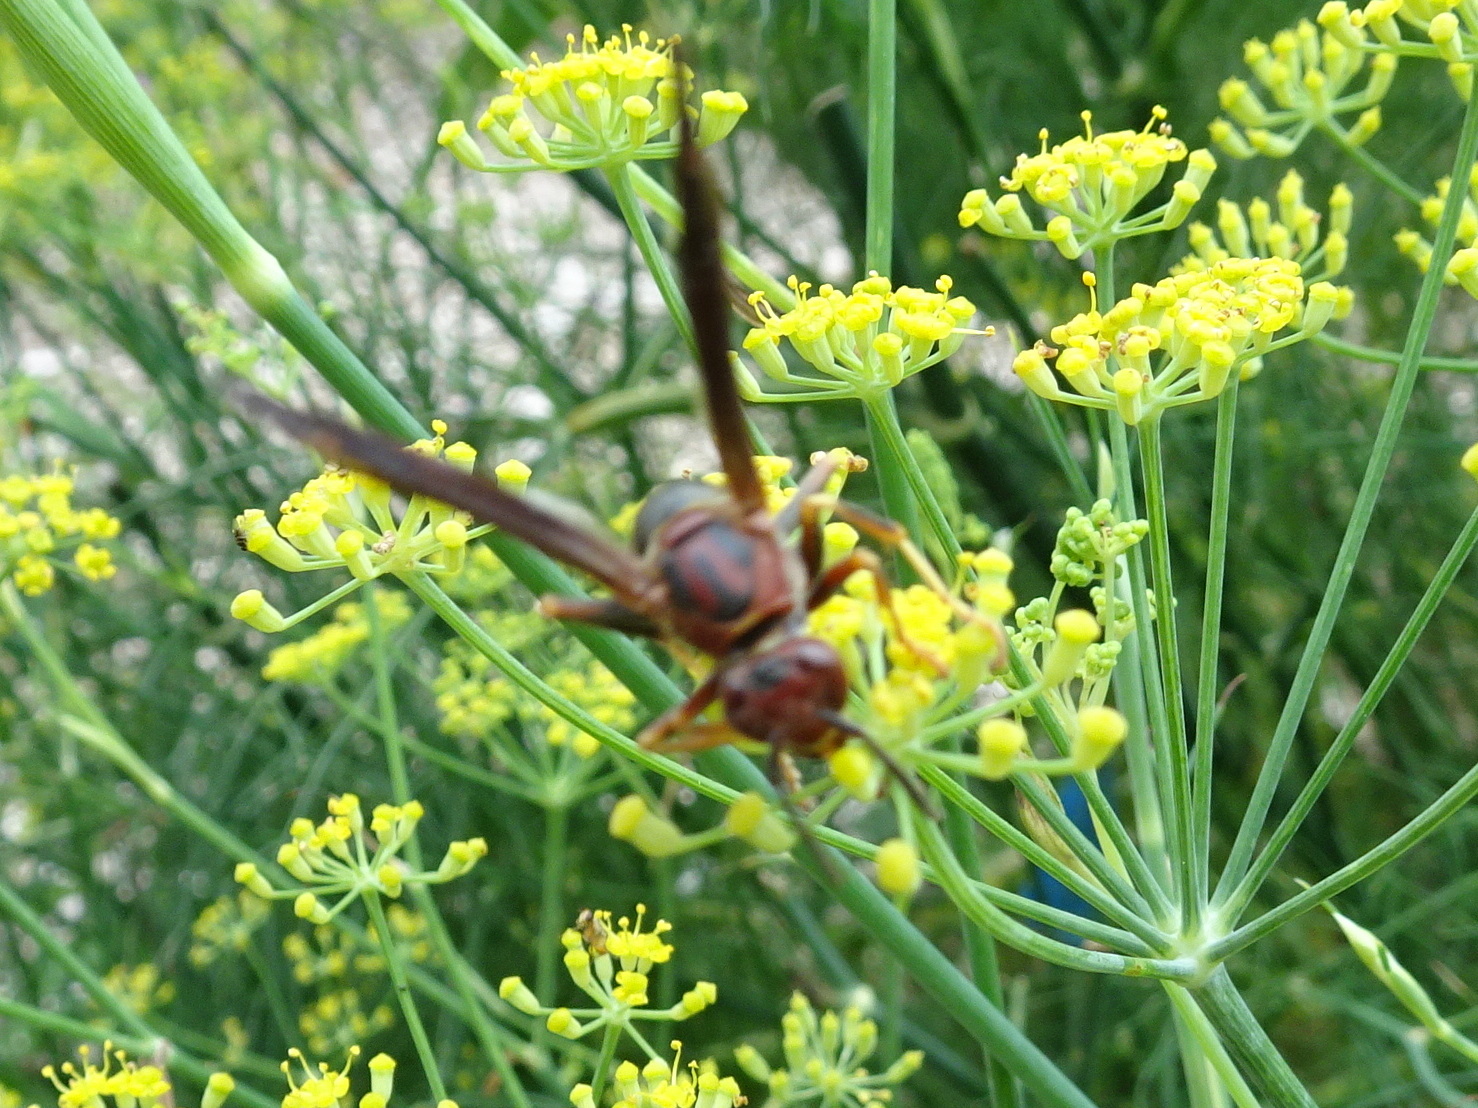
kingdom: Animalia
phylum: Arthropoda
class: Insecta
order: Hymenoptera
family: Eumenidae
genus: Polistes
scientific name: Polistes metricus
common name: Metric paper wasp
